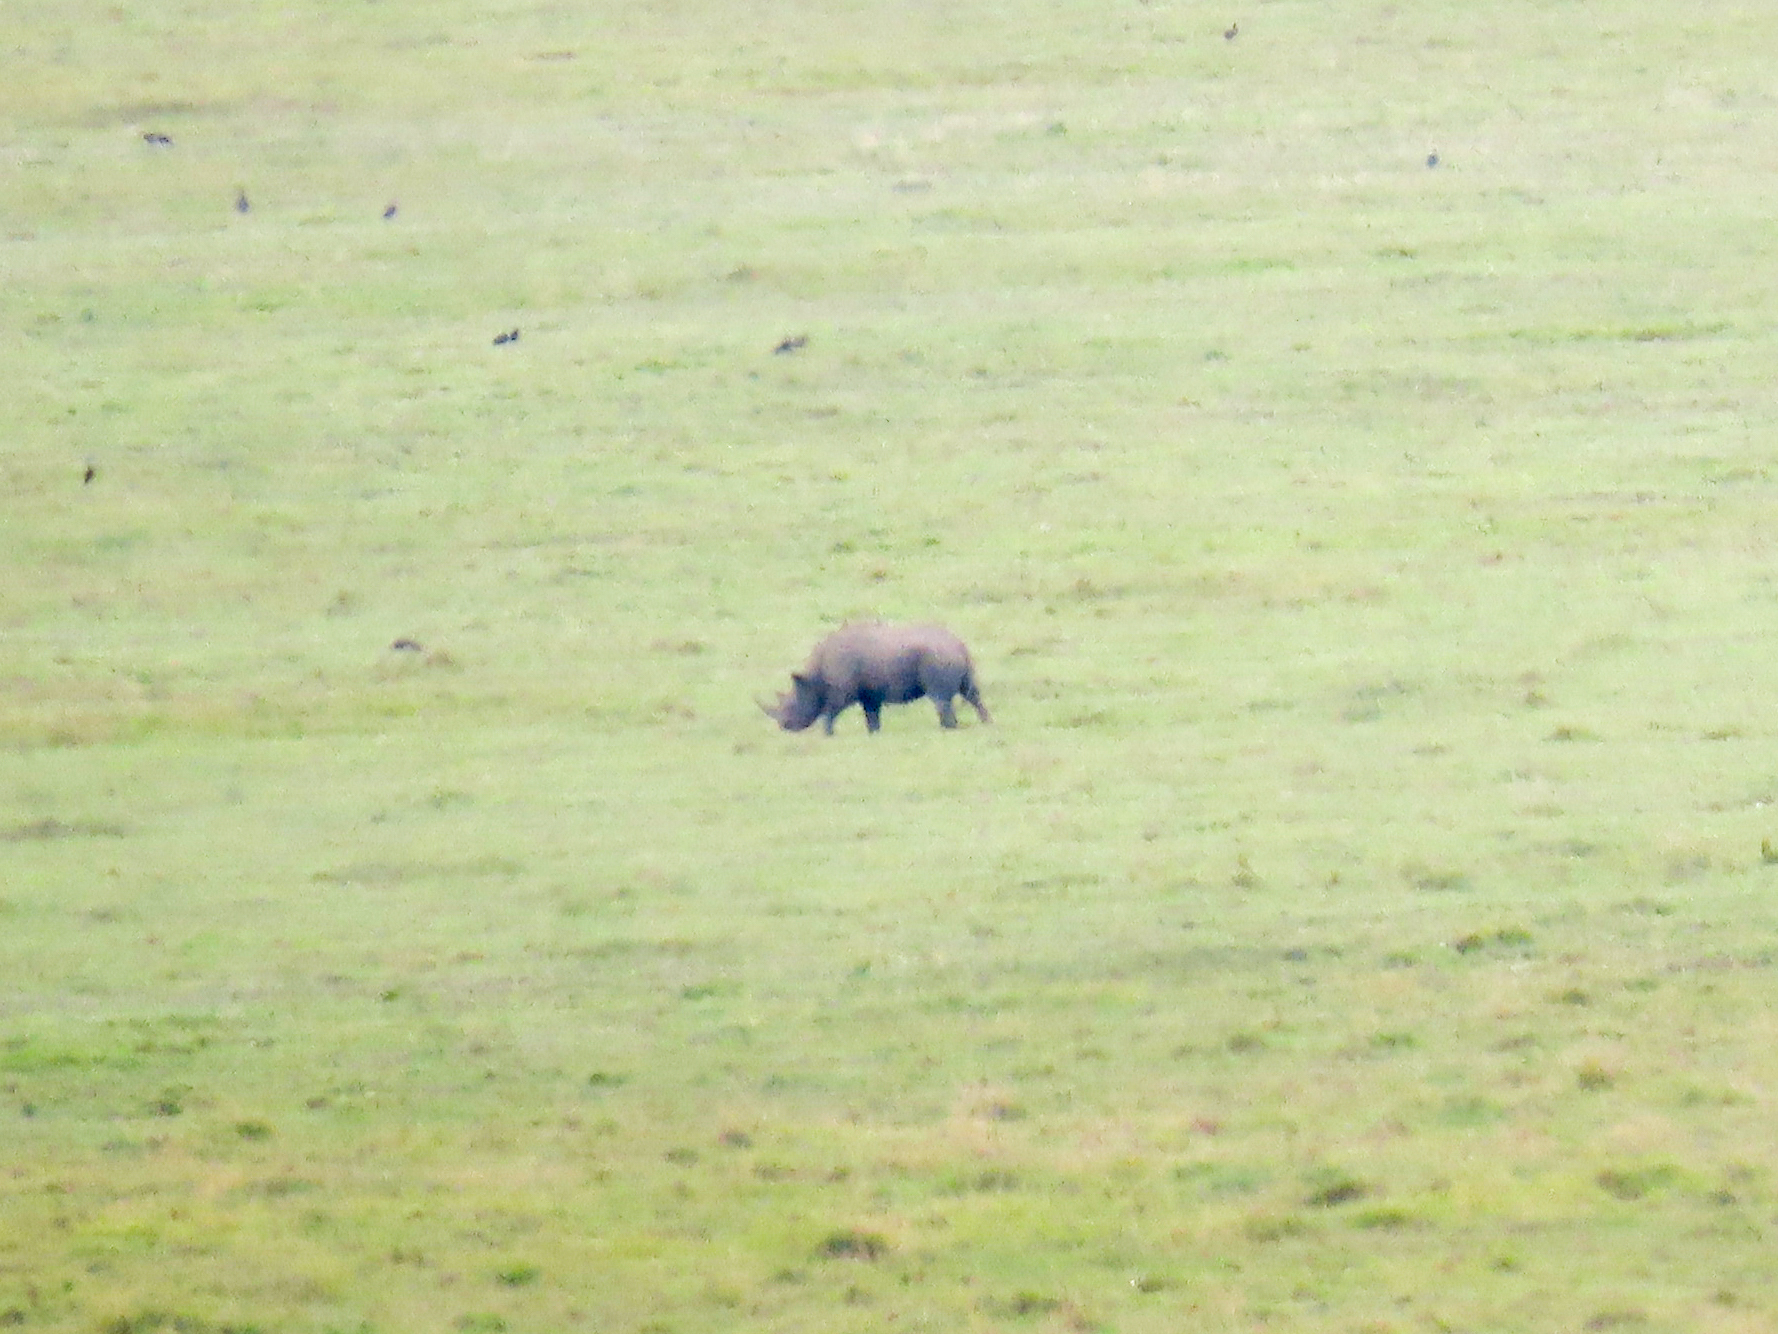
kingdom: Animalia
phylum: Chordata
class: Mammalia
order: Perissodactyla
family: Rhinocerotidae
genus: Diceros
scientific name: Diceros bicornis
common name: Black rhinoceros
